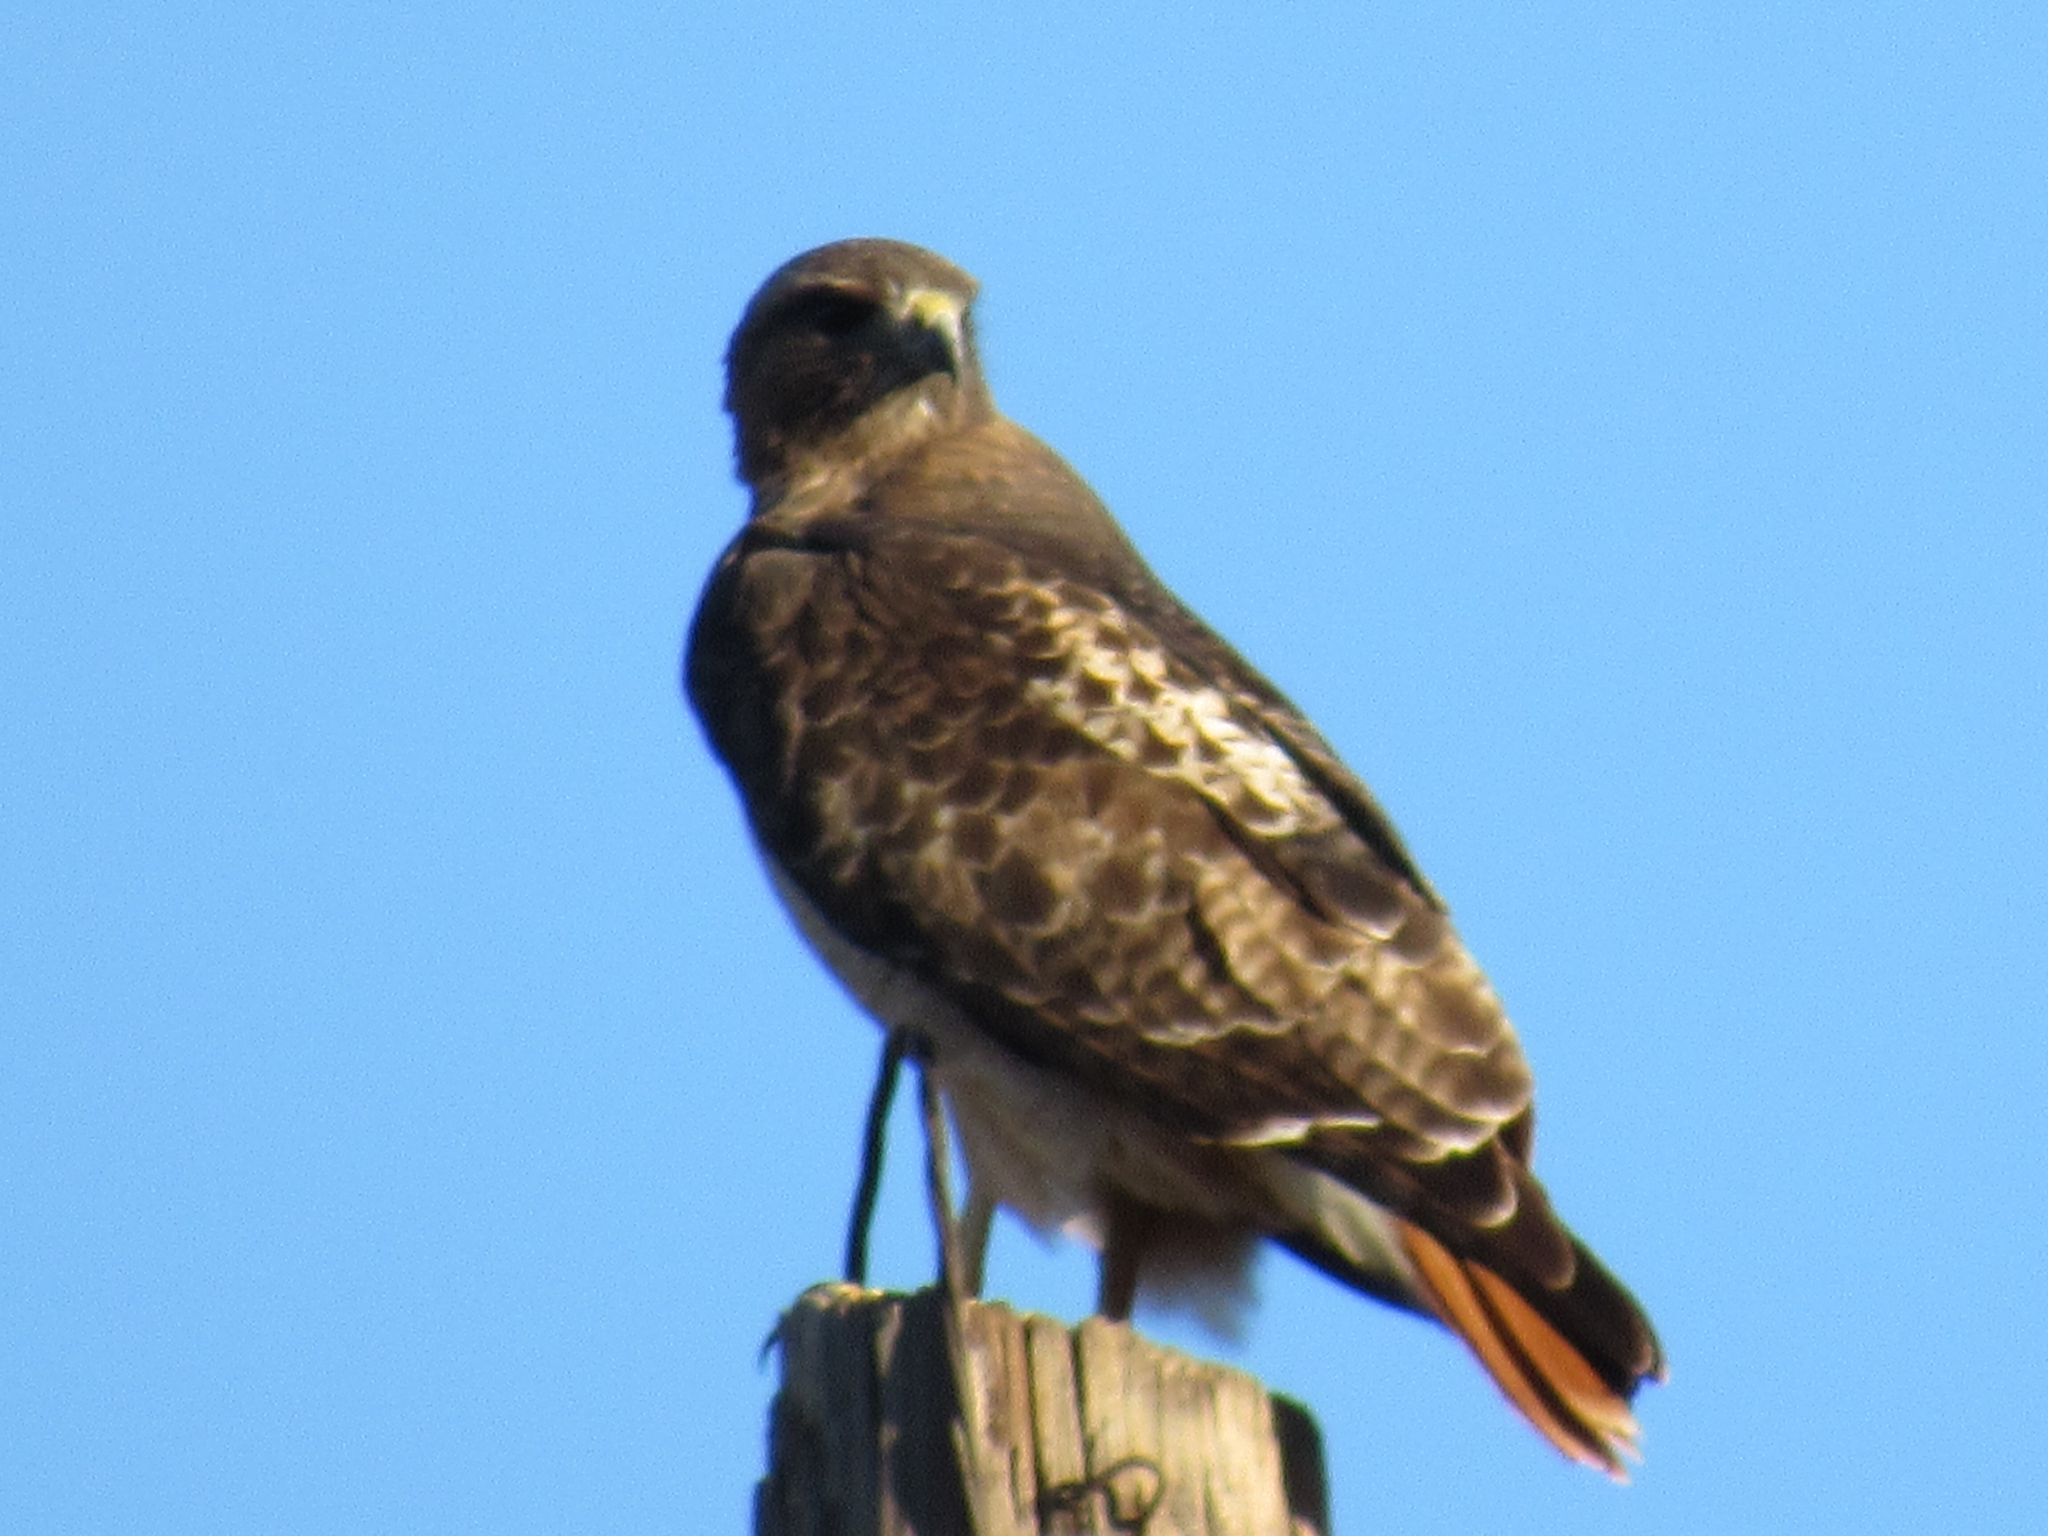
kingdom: Animalia
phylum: Chordata
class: Aves
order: Accipitriformes
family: Accipitridae
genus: Buteo
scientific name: Buteo jamaicensis
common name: Red-tailed hawk
